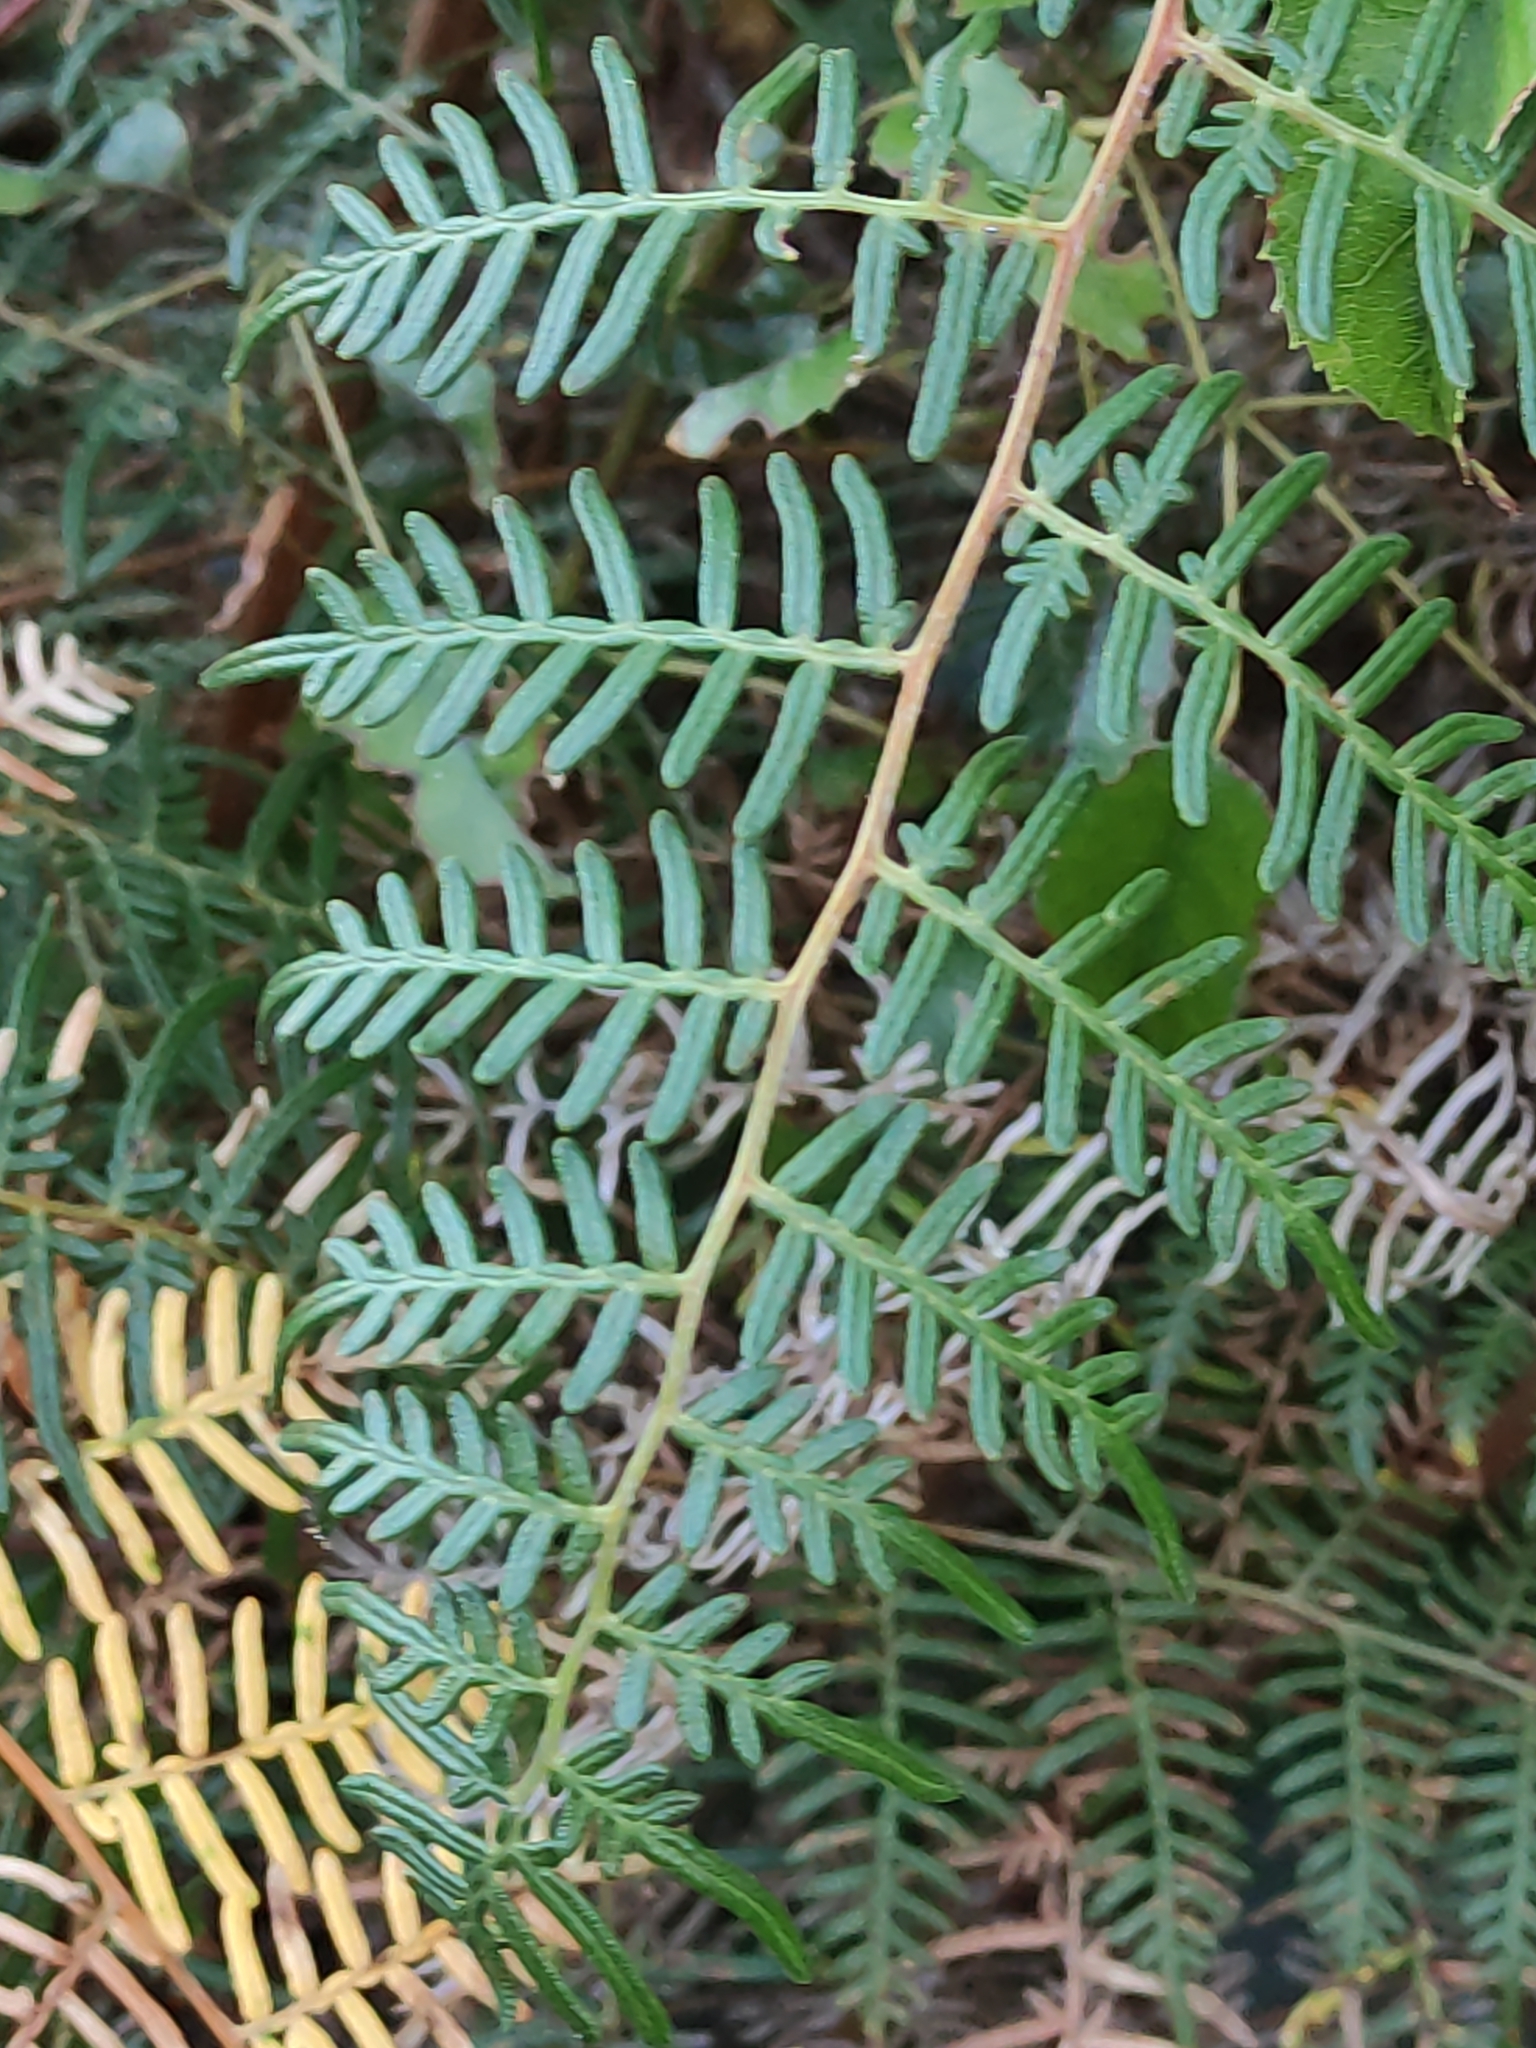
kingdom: Plantae
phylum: Tracheophyta
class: Polypodiopsida
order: Polypodiales
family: Dennstaedtiaceae
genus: Pteridium
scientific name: Pteridium esculentum
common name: Bracken fern
